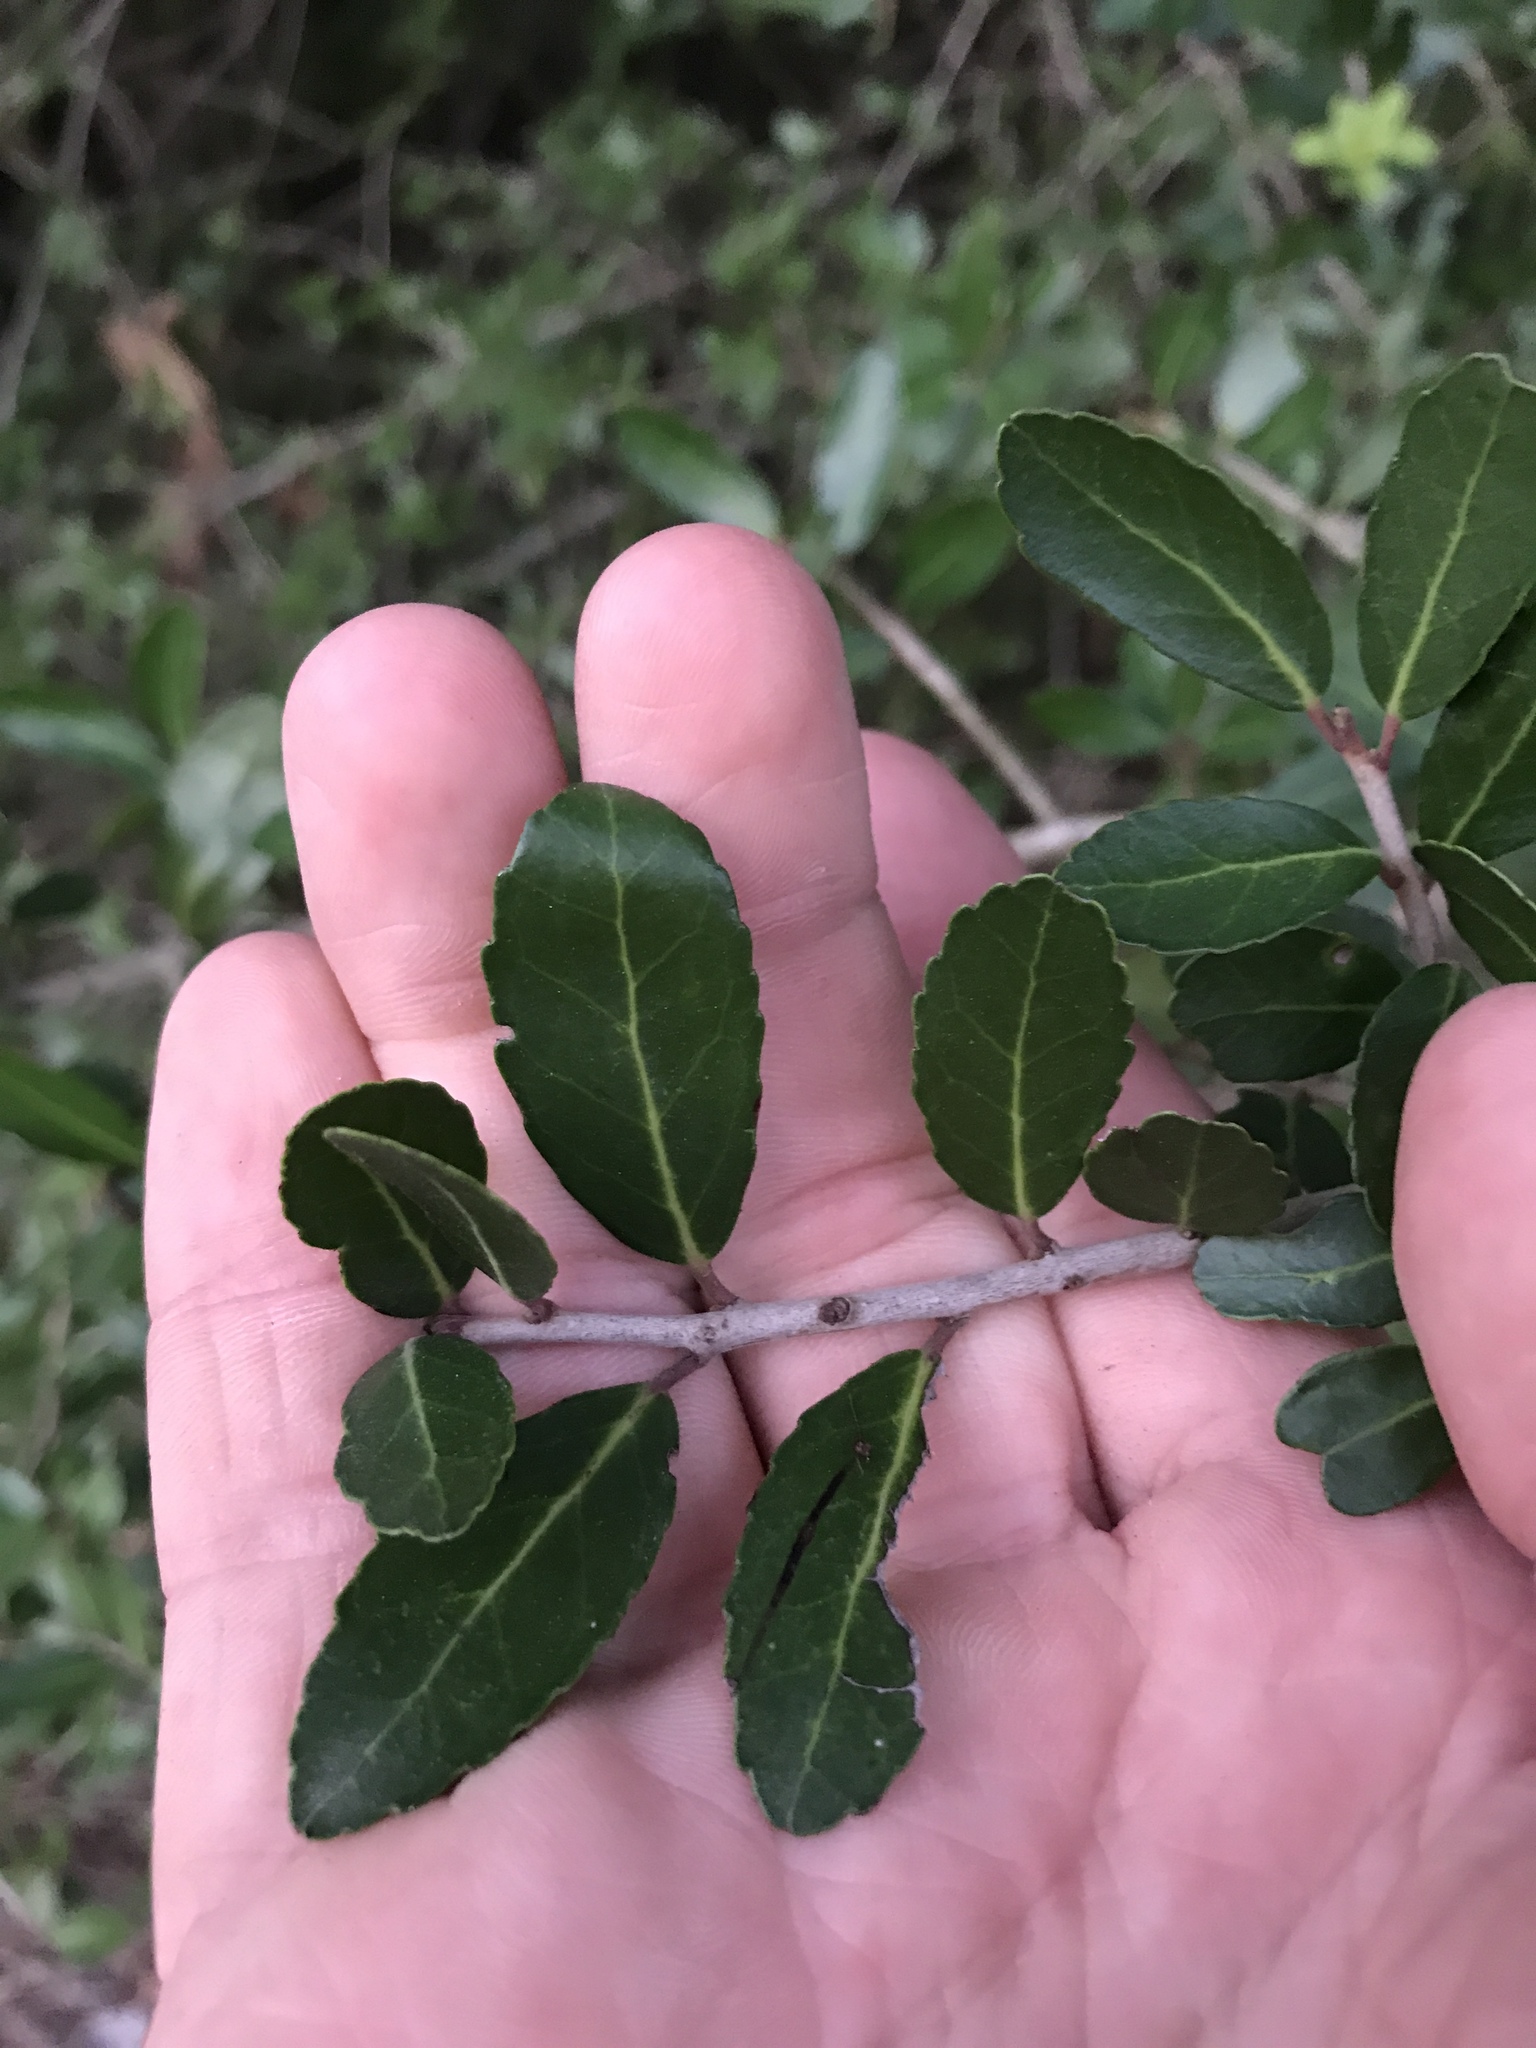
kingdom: Plantae
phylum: Tracheophyta
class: Magnoliopsida
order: Aquifoliales
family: Aquifoliaceae
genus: Ilex
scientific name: Ilex vomitoria
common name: Yaupon holly
